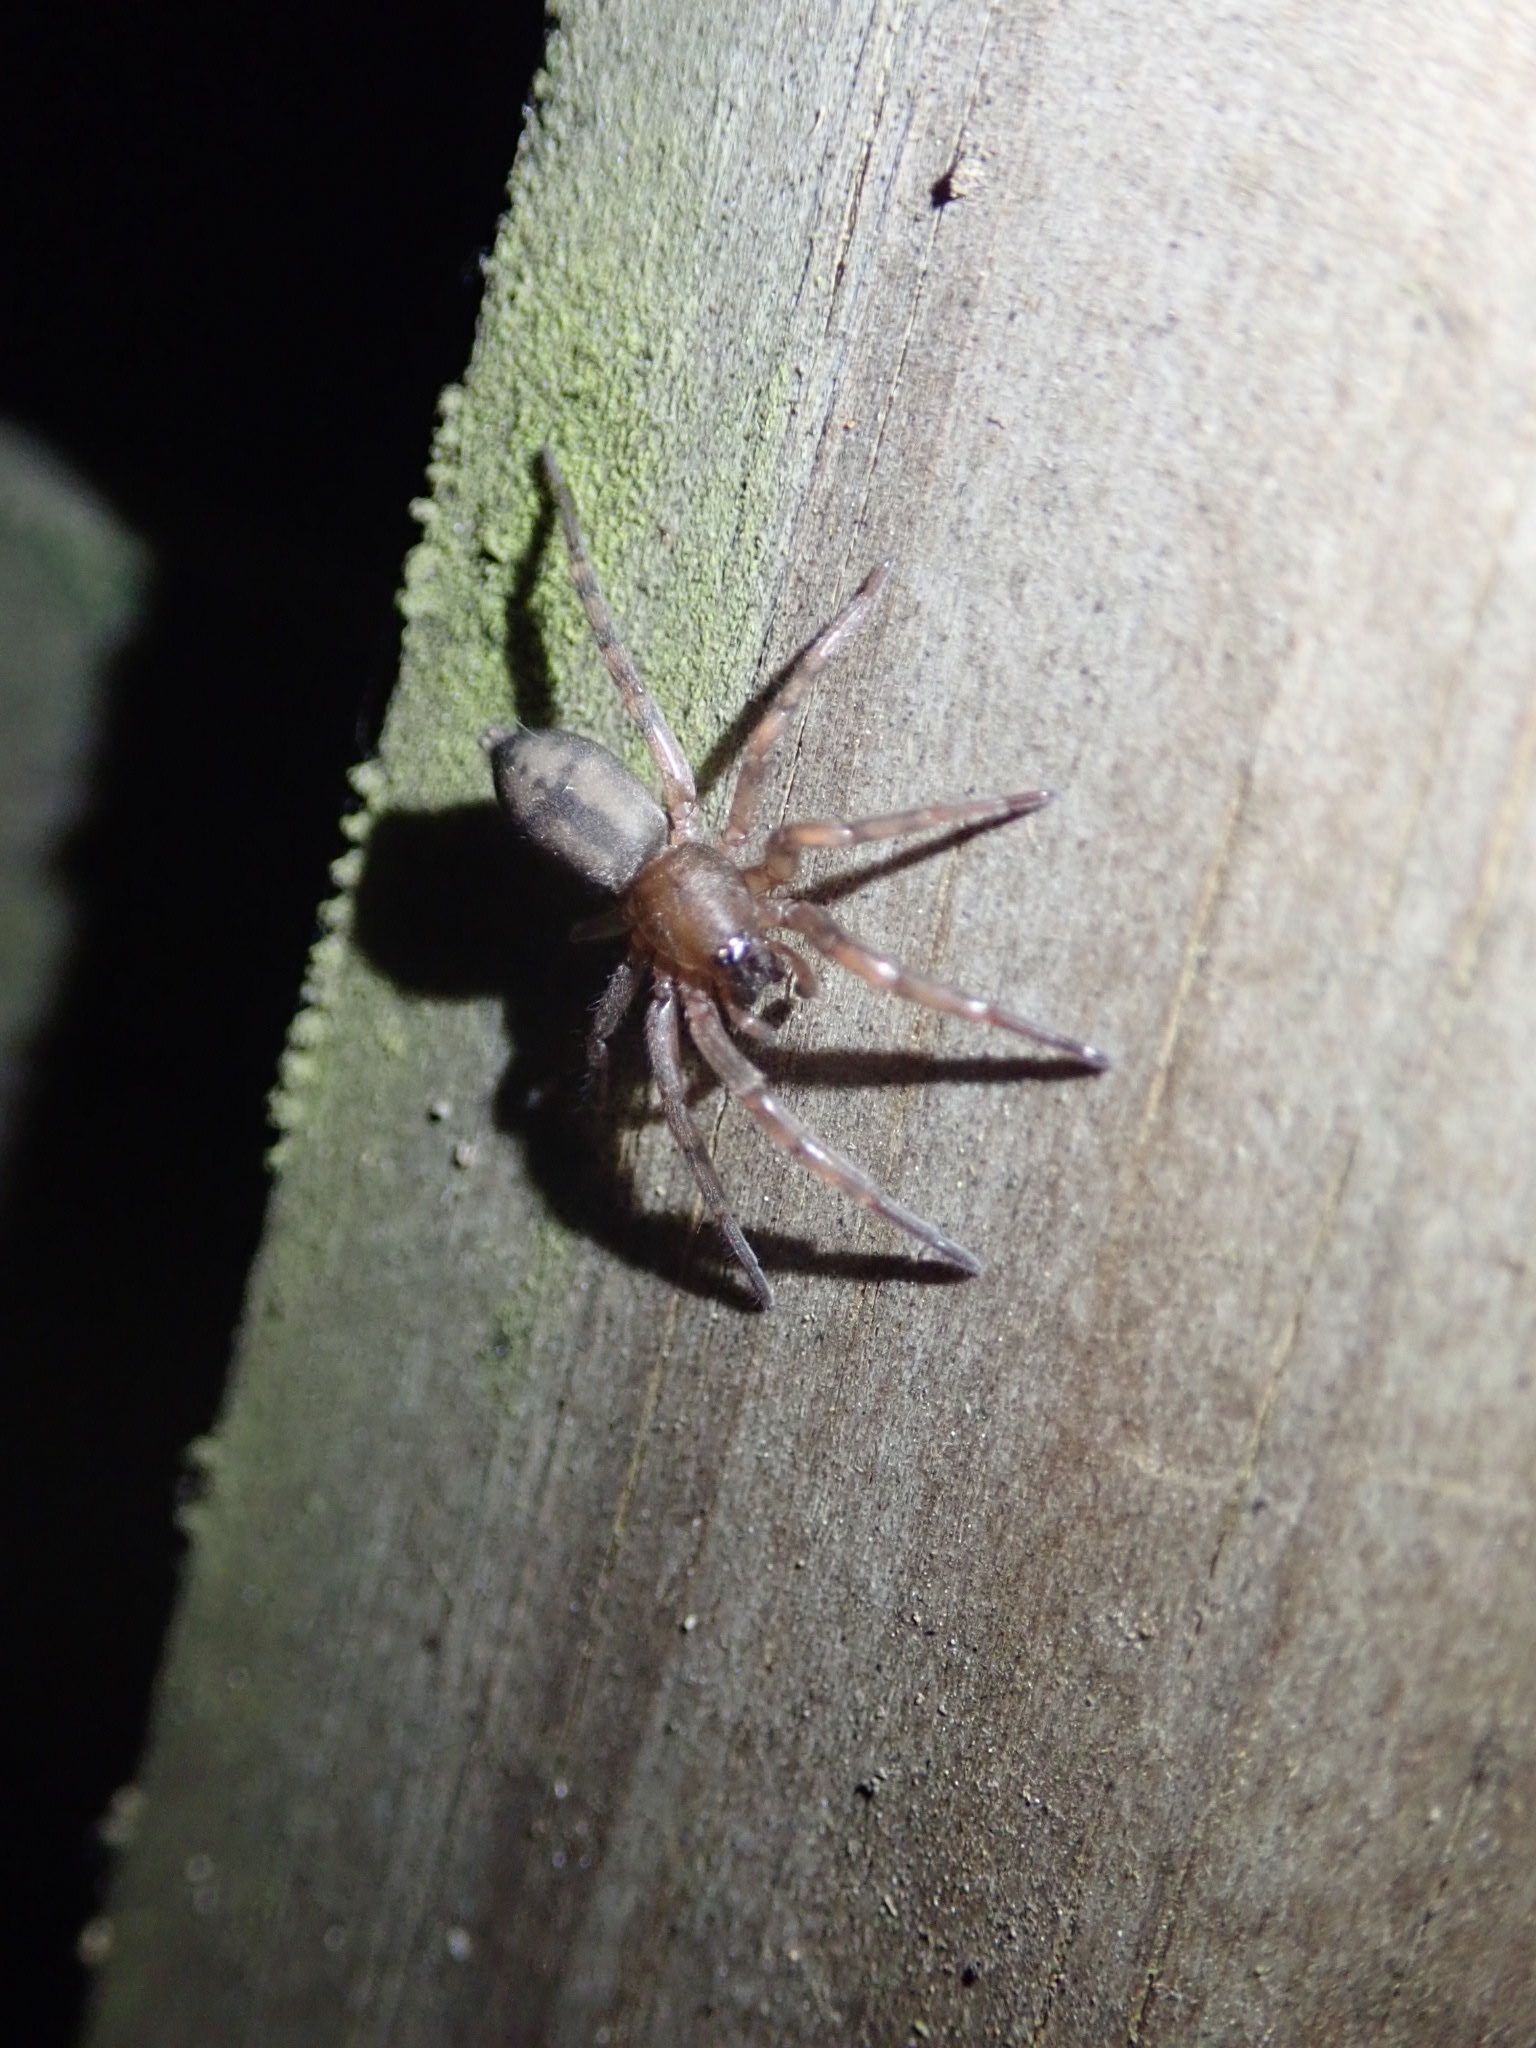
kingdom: Animalia
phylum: Arthropoda
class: Arachnida
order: Araneae
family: Gnaphosidae
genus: Intruda
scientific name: Intruda signata
